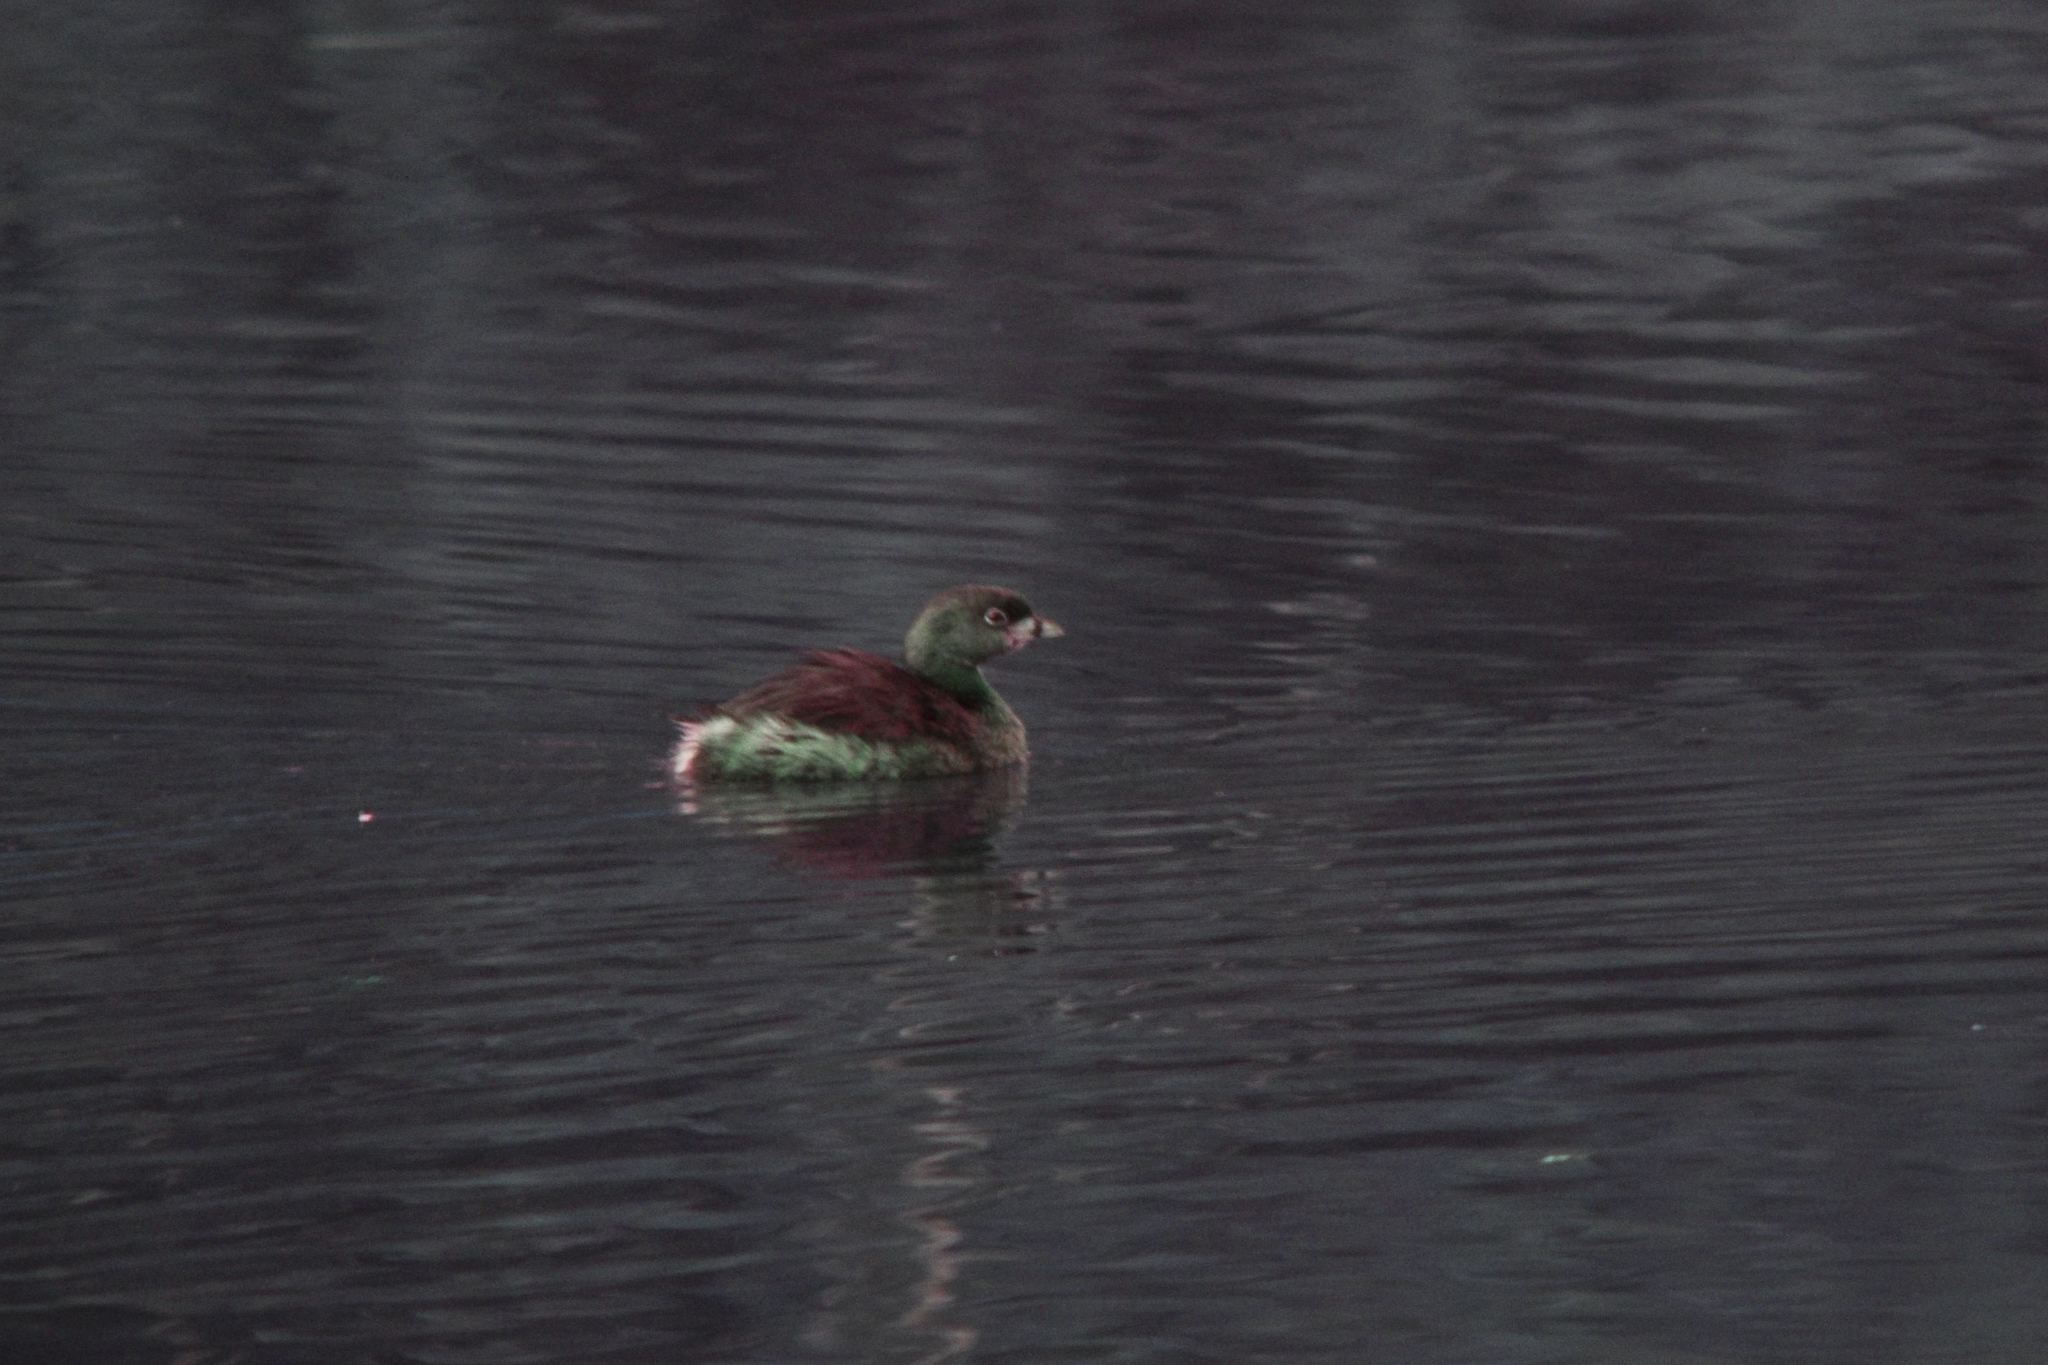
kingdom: Animalia
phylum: Chordata
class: Aves
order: Podicipediformes
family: Podicipedidae
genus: Podilymbus
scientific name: Podilymbus podiceps
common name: Pied-billed grebe
